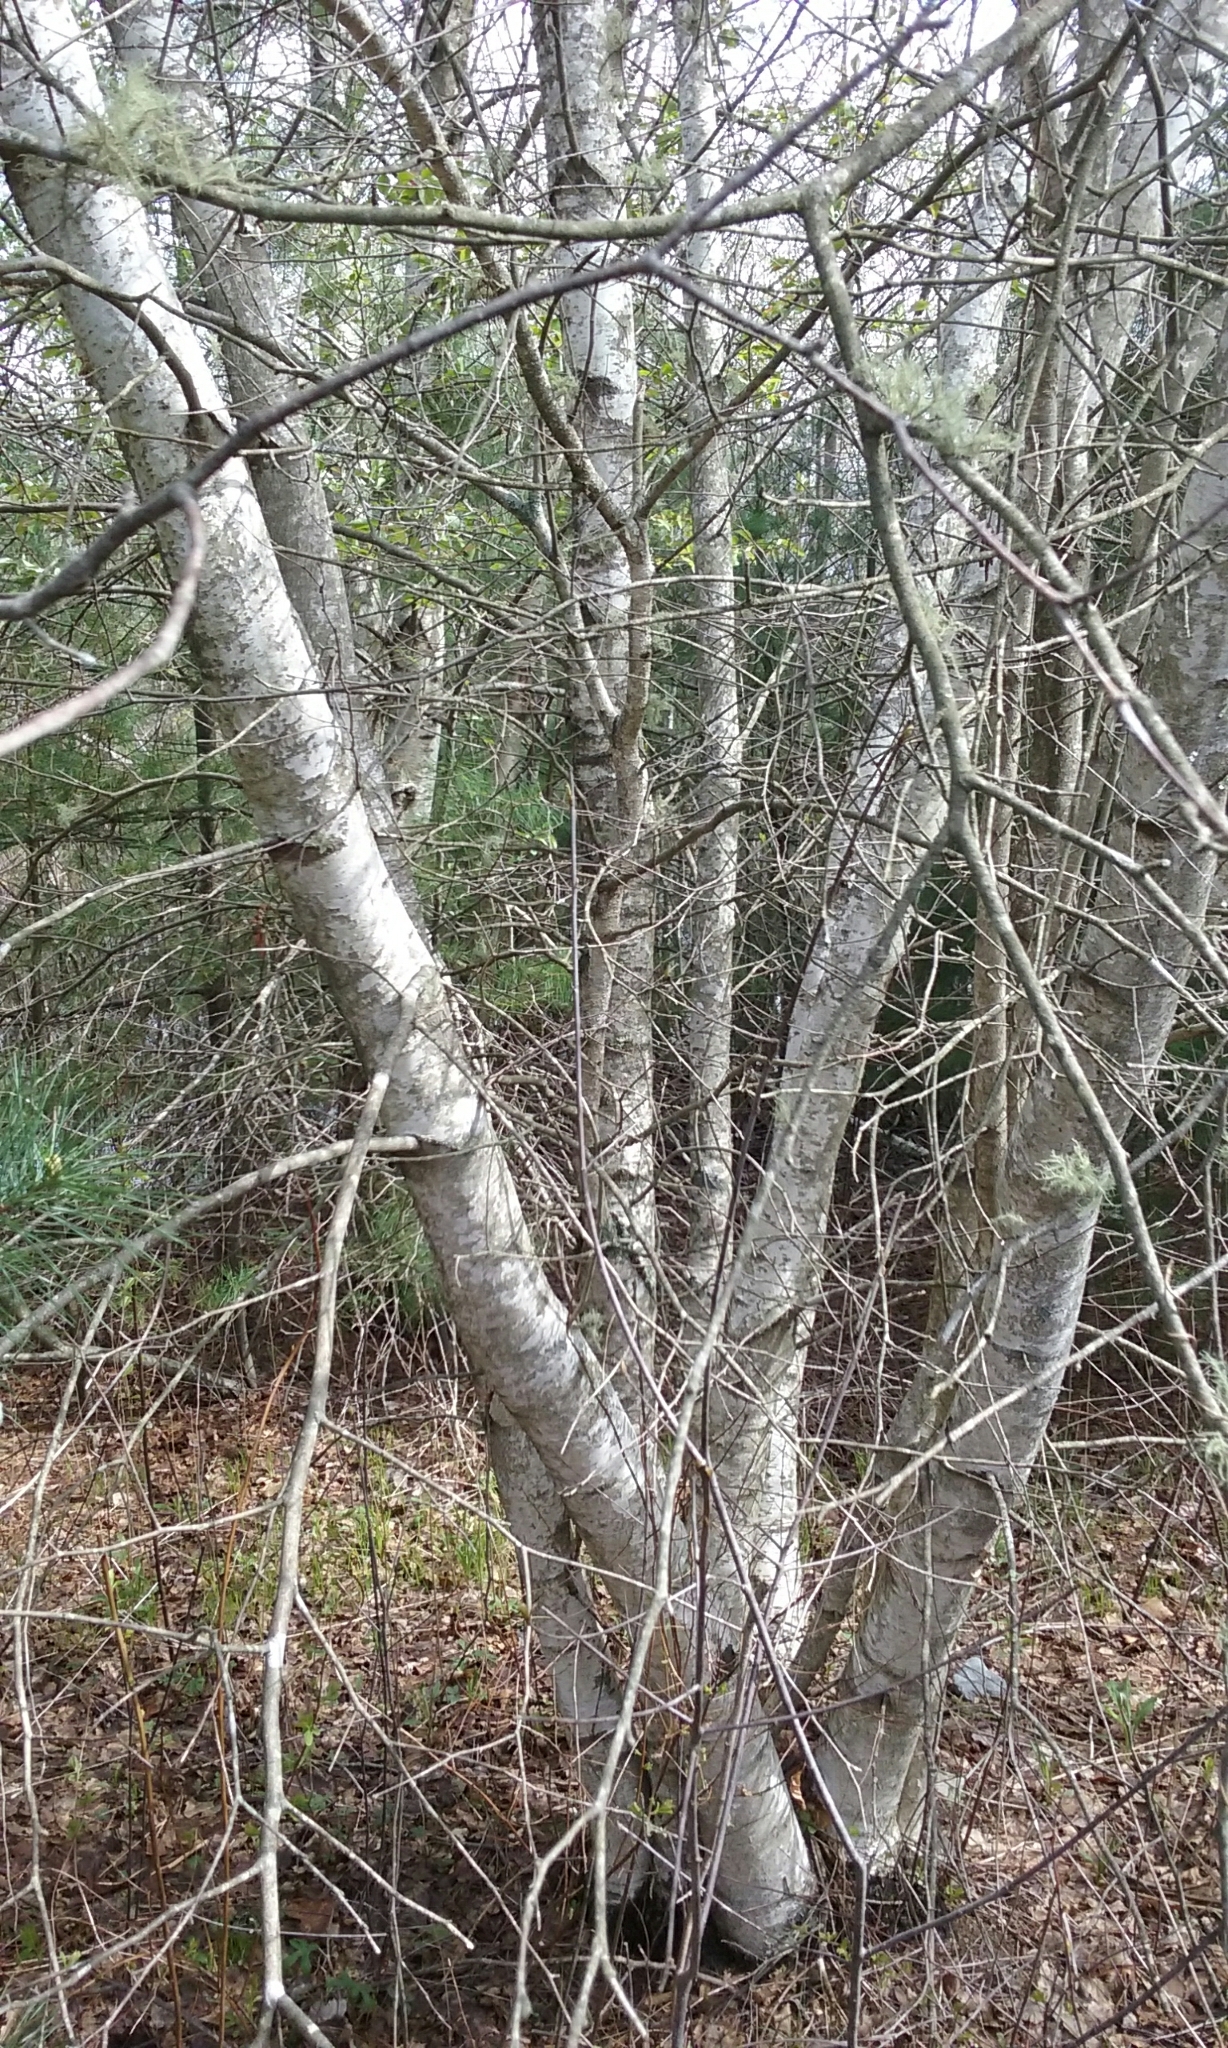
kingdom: Plantae
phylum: Tracheophyta
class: Magnoliopsida
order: Fagales
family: Betulaceae
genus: Betula
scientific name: Betula populifolia
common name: Fire birch
